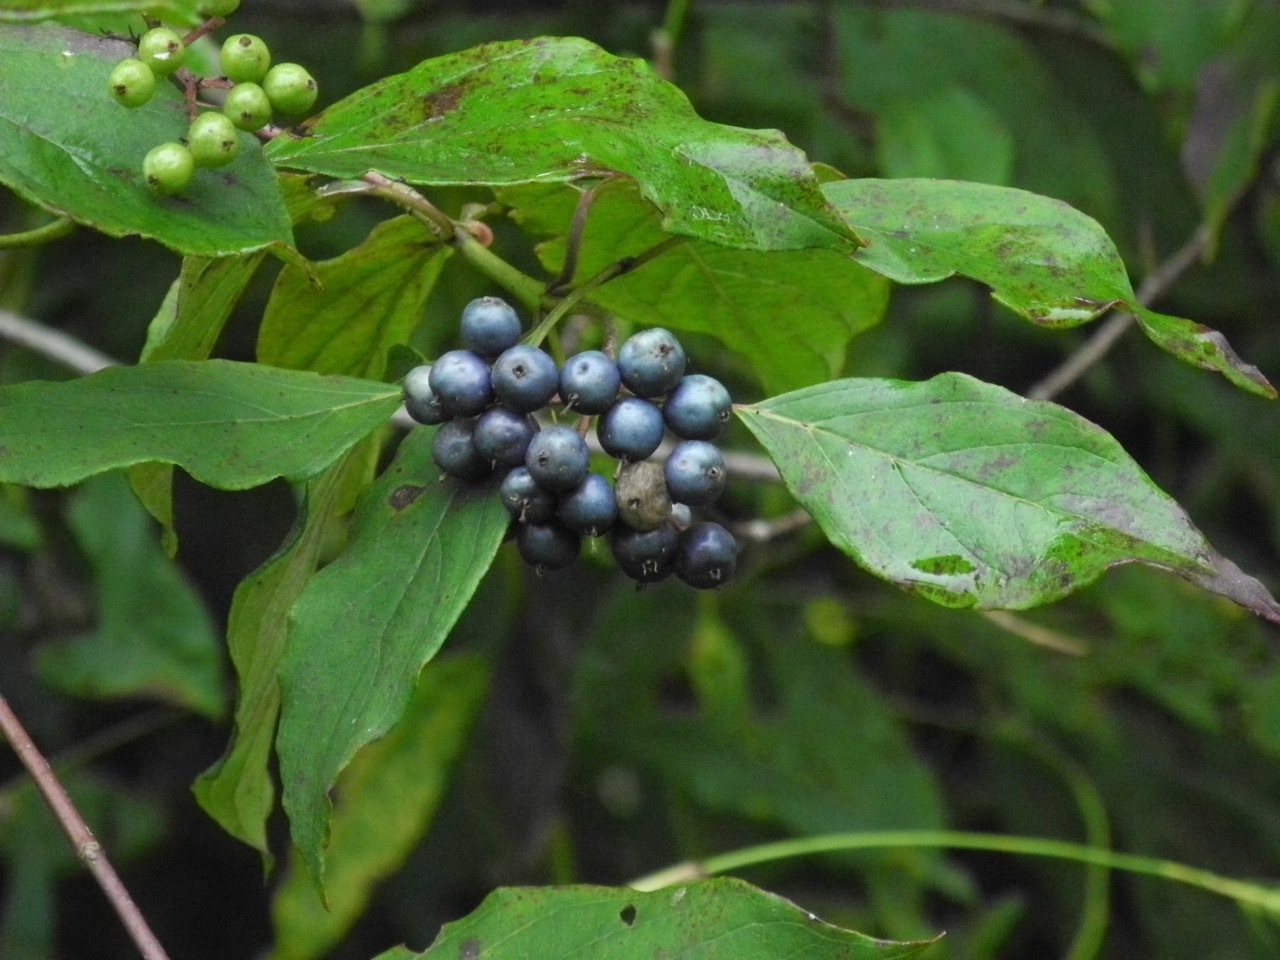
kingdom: Plantae
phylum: Tracheophyta
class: Magnoliopsida
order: Cornales
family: Cornaceae
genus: Cornus
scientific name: Cornus amomum
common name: Silky dogwood
